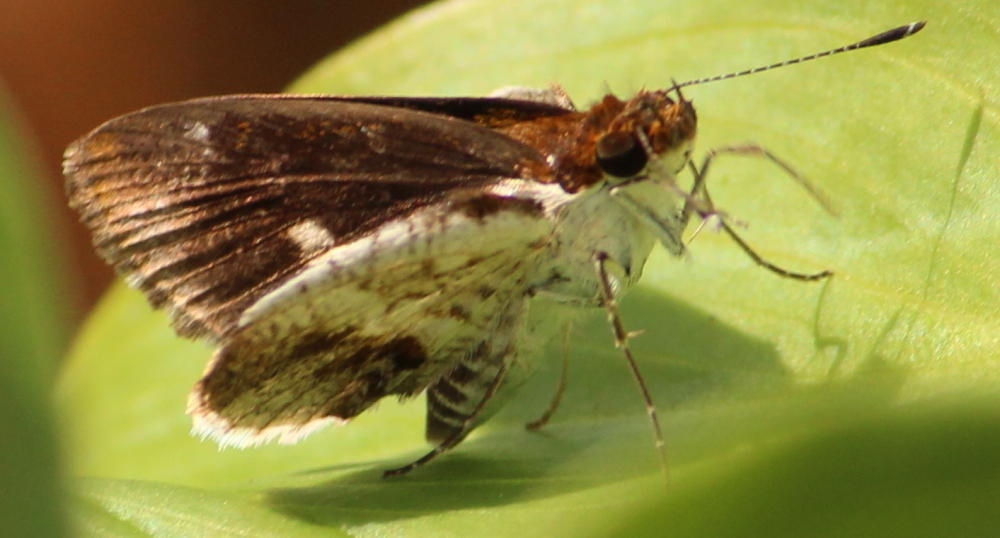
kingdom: Animalia
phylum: Arthropoda
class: Insecta
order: Lepidoptera
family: Hesperiidae
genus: Acleros
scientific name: Acleros mackenii
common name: Shade dart
